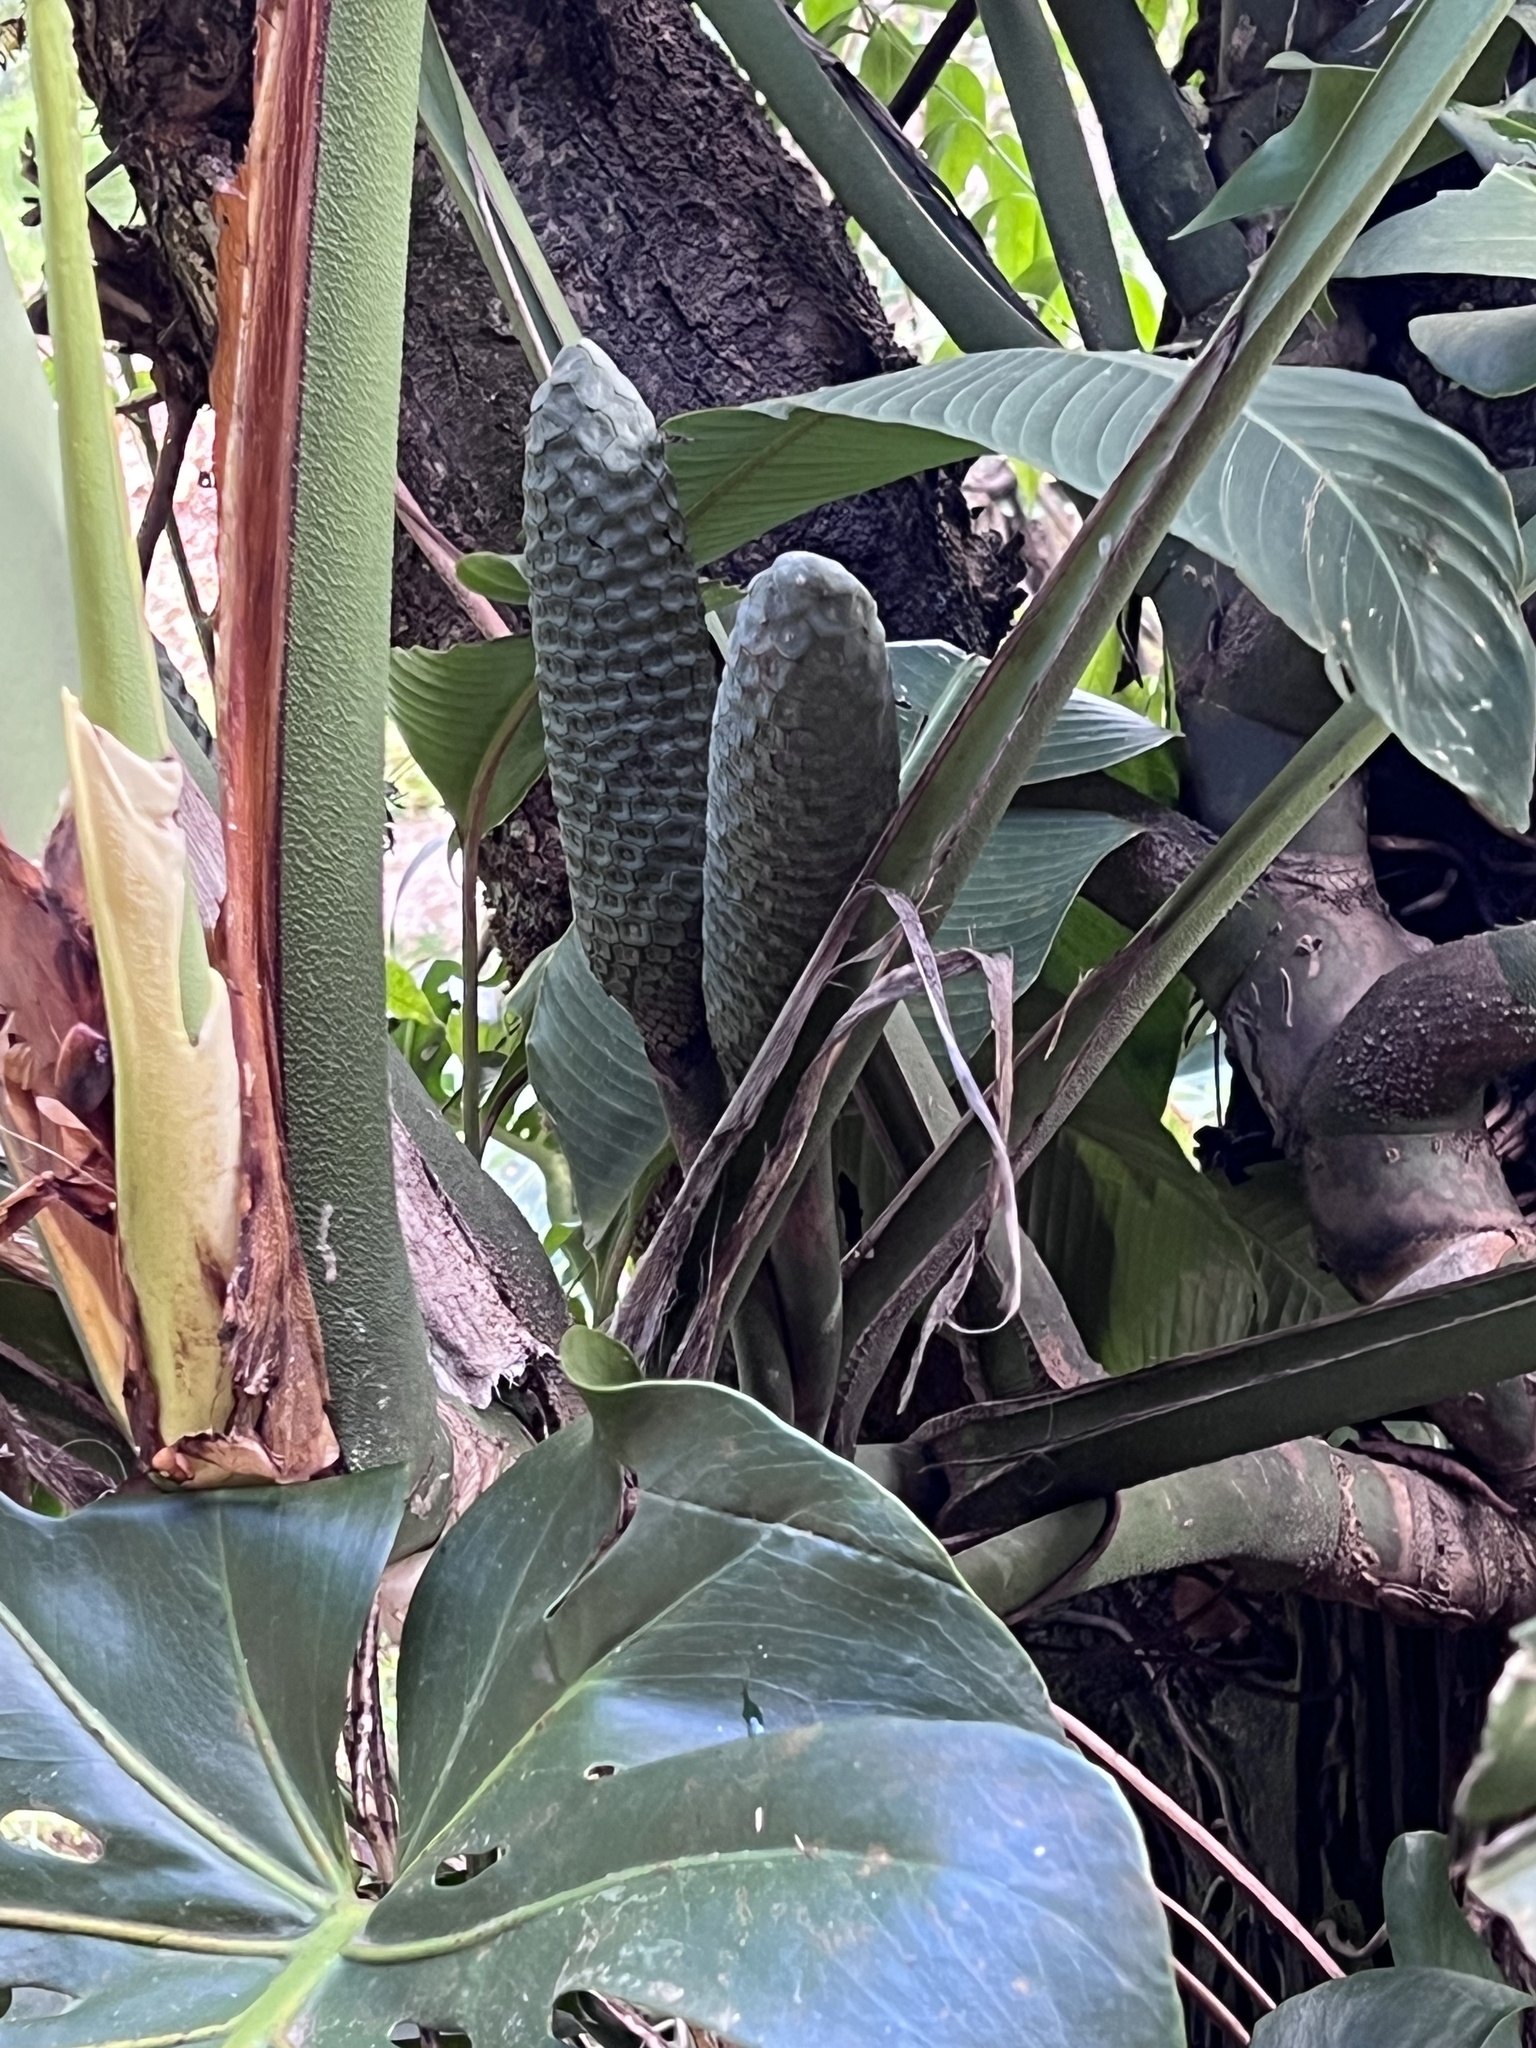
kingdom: Plantae
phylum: Tracheophyta
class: Liliopsida
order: Alismatales
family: Araceae
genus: Monstera
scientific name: Monstera deliciosa
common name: Cut-leaf-philodendron
